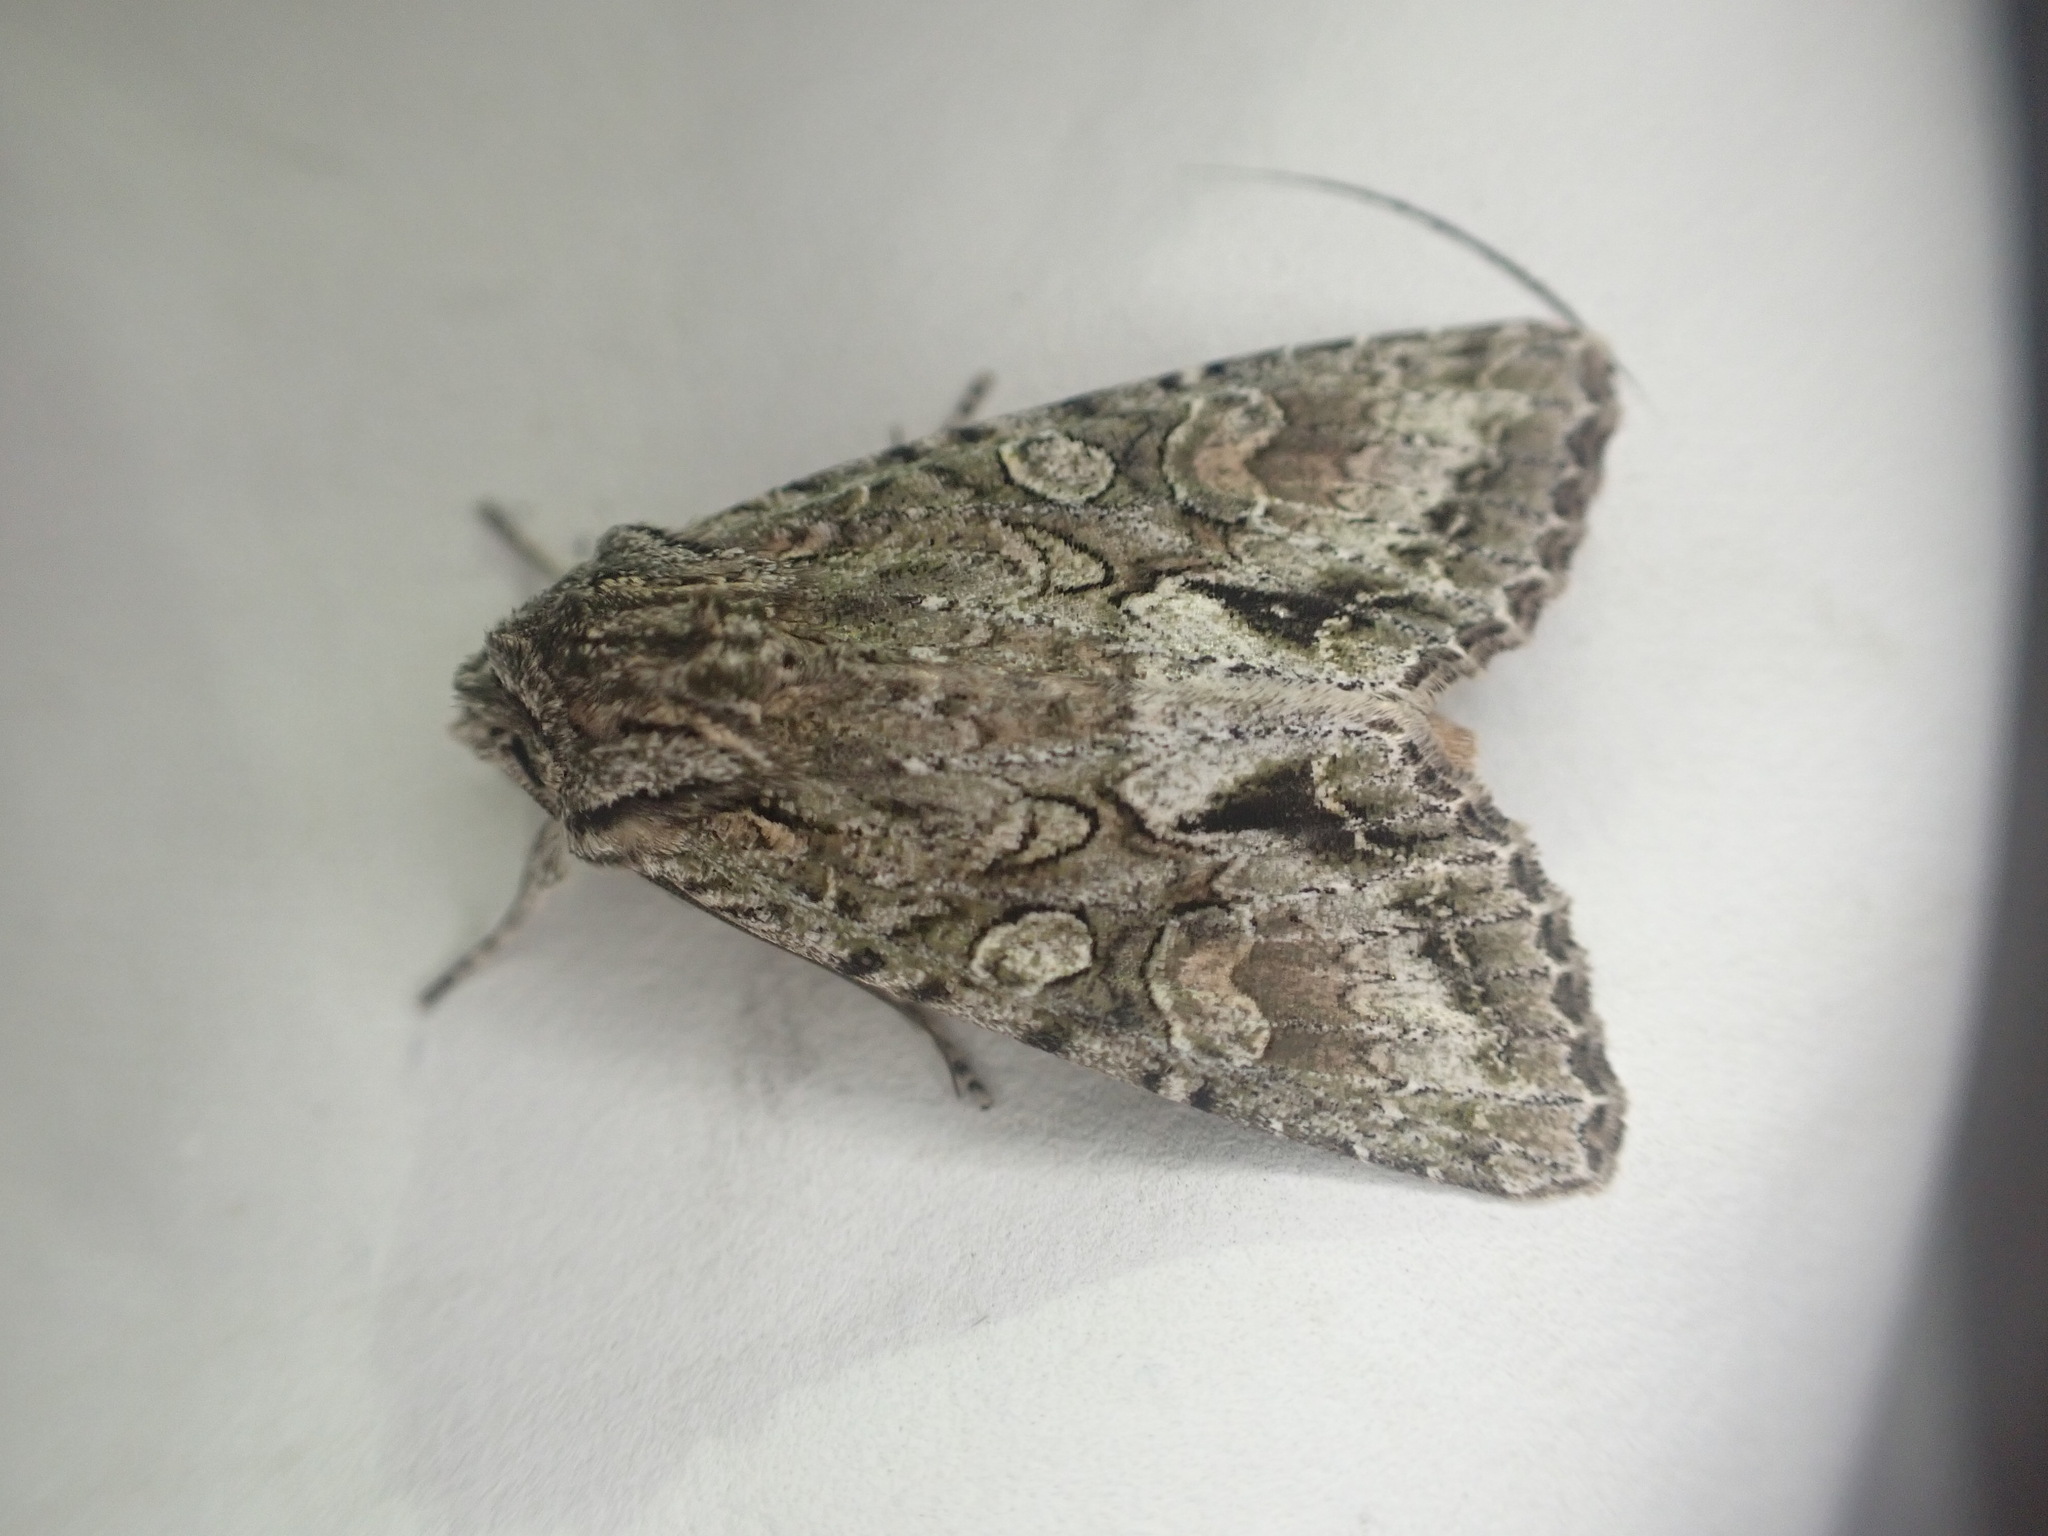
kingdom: Animalia
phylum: Arthropoda
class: Insecta
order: Lepidoptera
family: Noctuidae
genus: Ichneutica
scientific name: Ichneutica mutans
